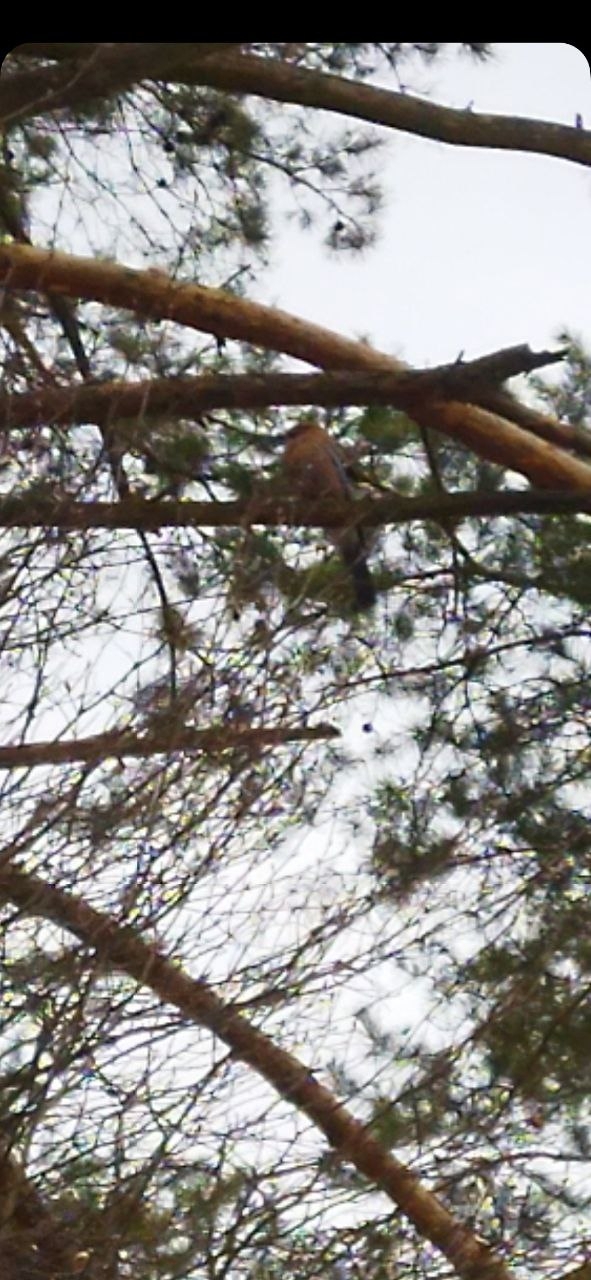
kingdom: Animalia
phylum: Chordata
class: Aves
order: Passeriformes
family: Corvidae
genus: Garrulus
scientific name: Garrulus glandarius
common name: Eurasian jay
